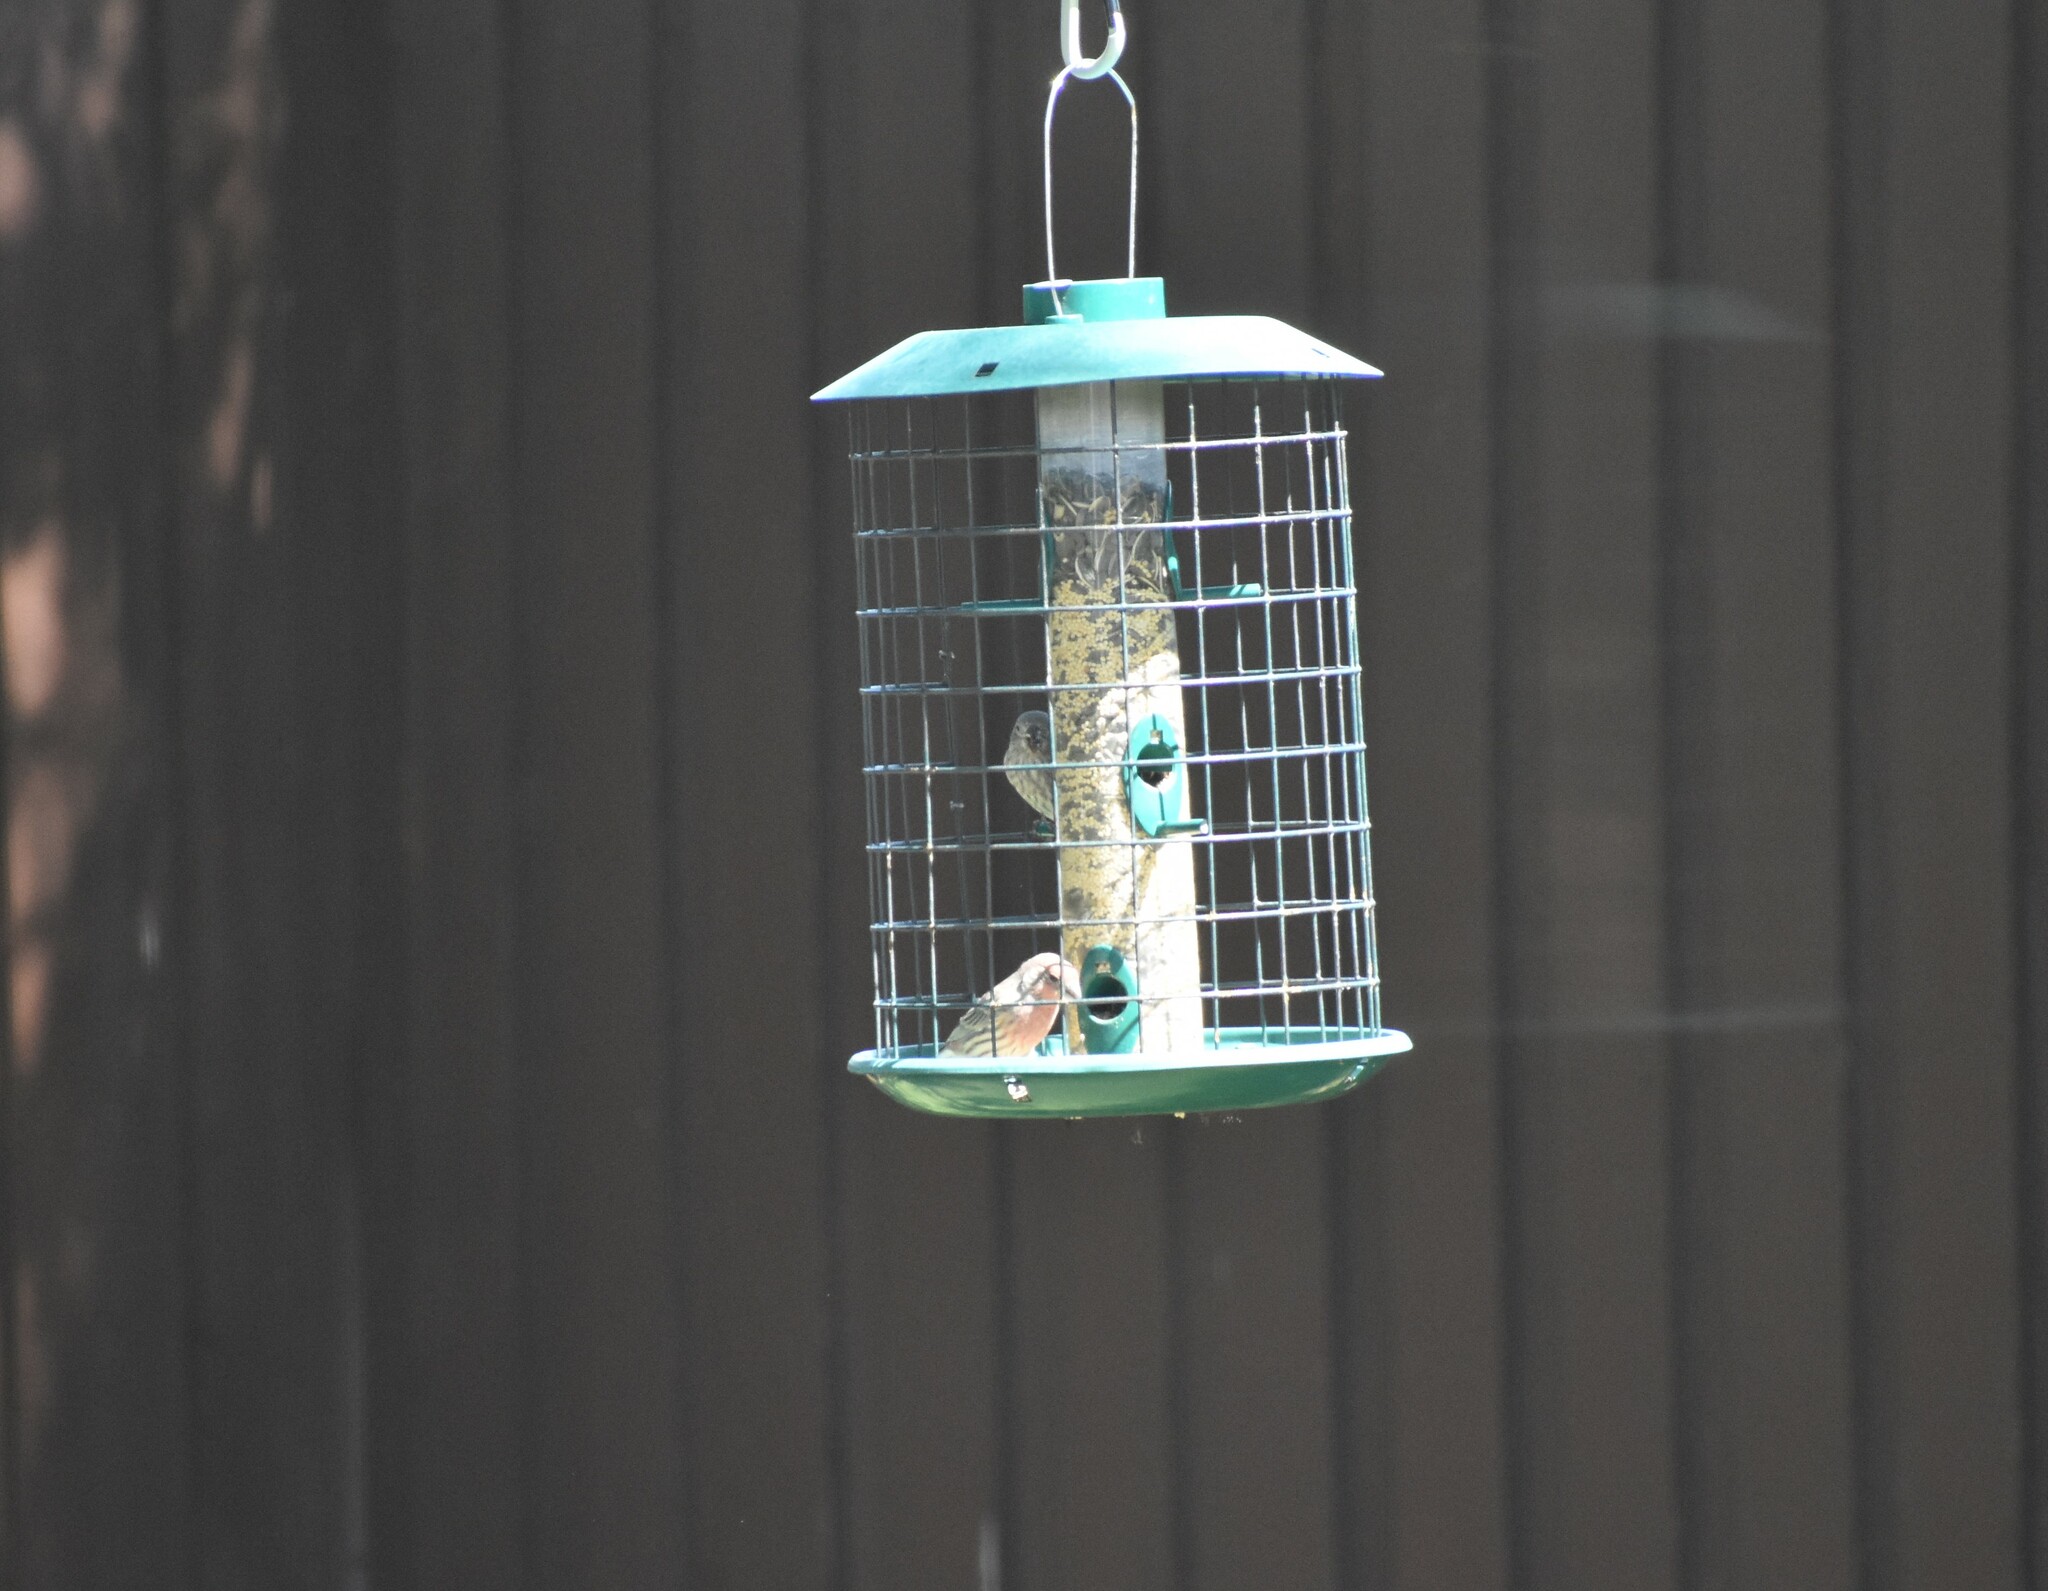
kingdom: Animalia
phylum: Chordata
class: Aves
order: Passeriformes
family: Fringillidae
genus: Haemorhous
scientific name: Haemorhous mexicanus
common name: House finch
